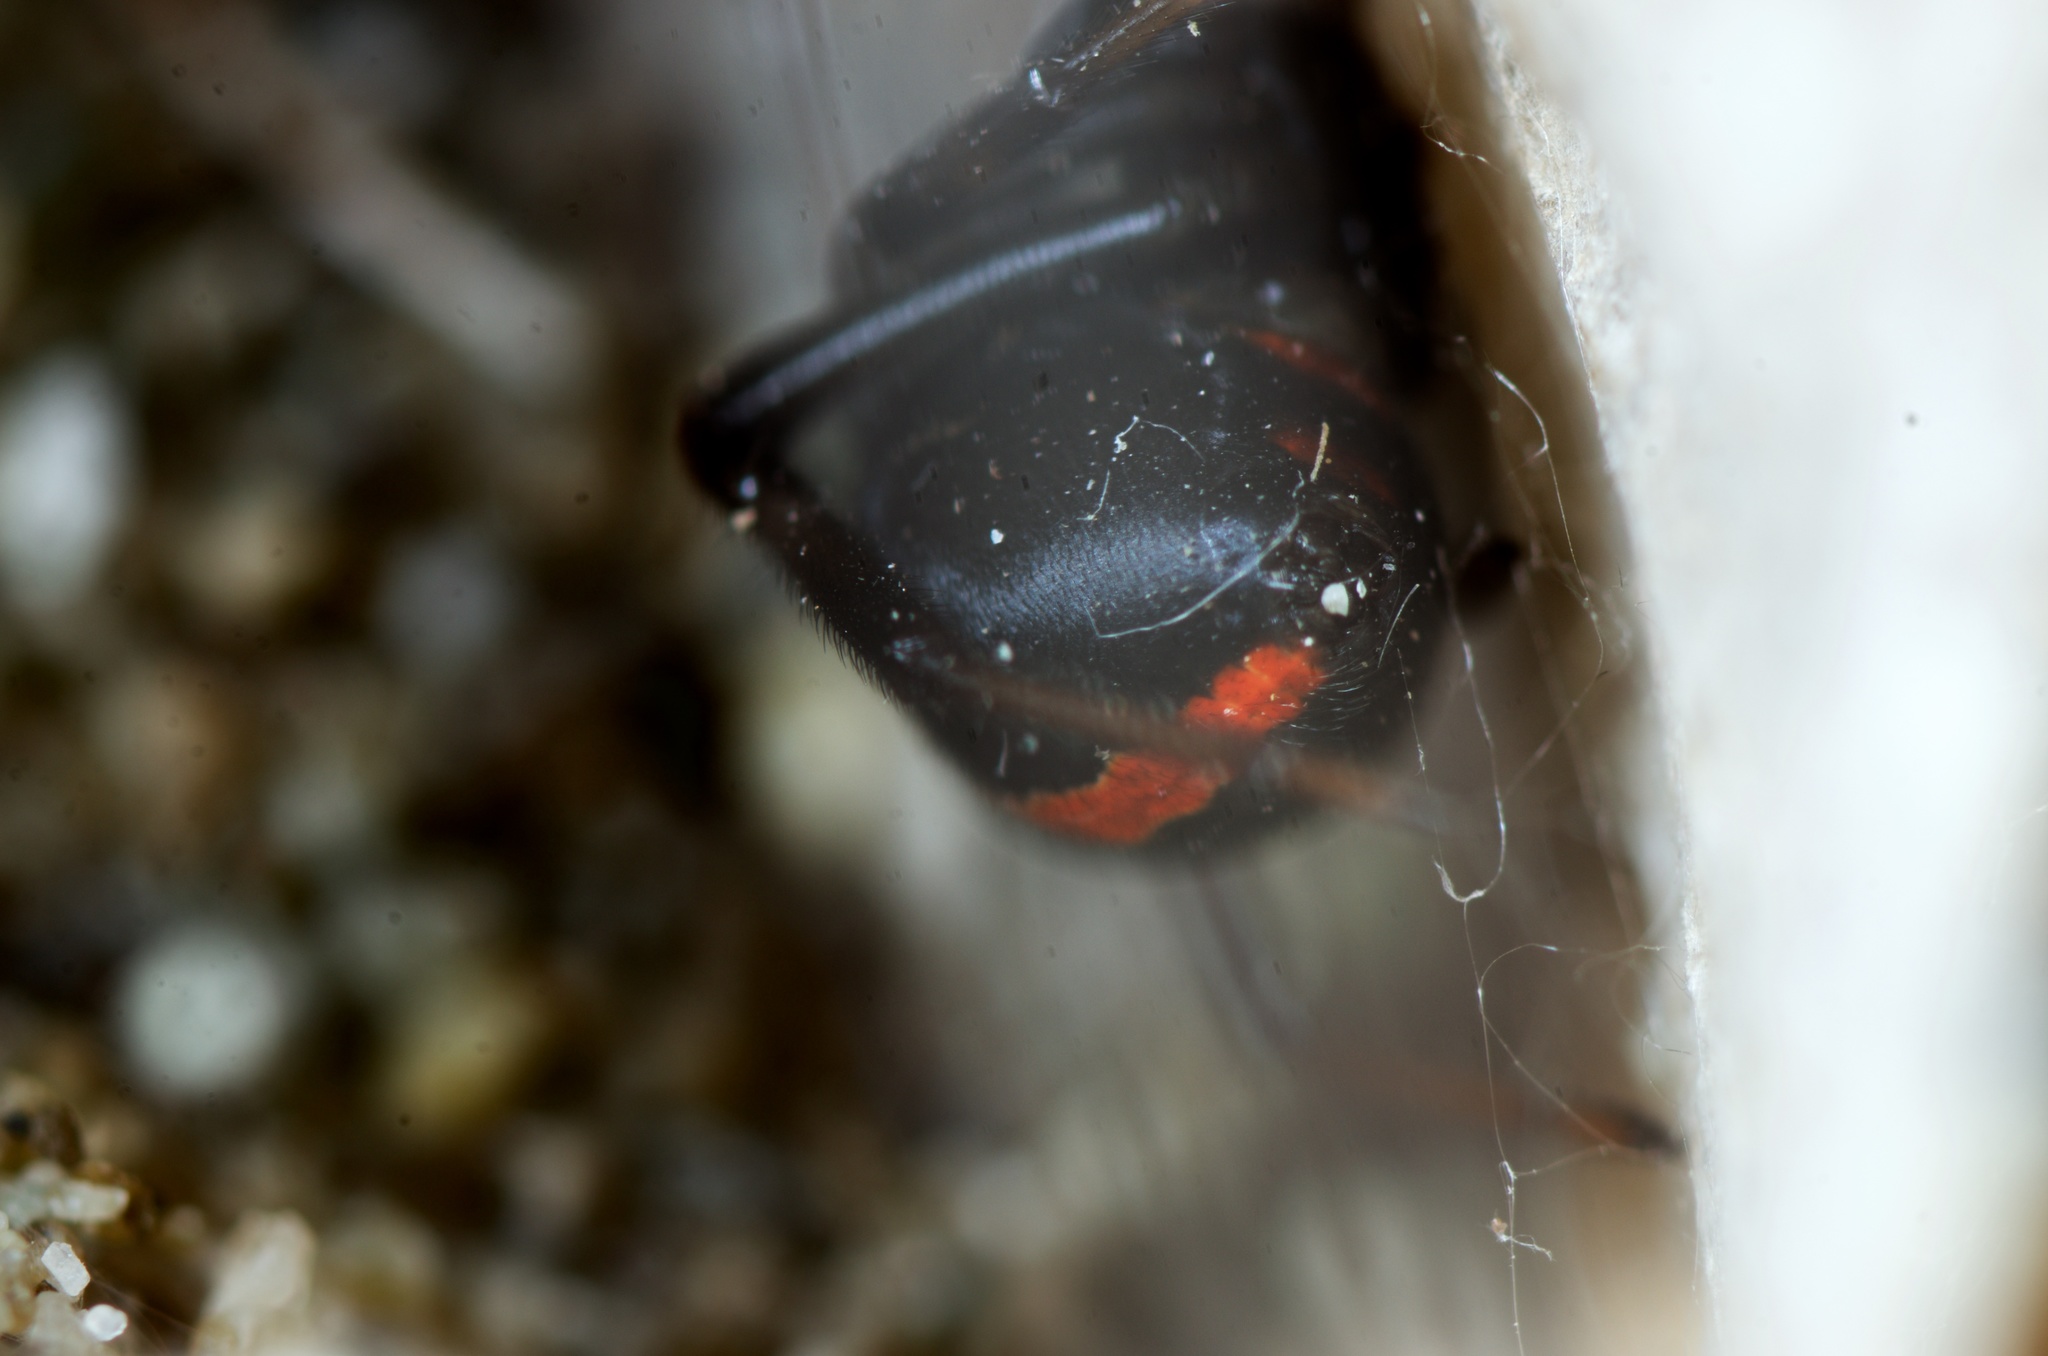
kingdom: Animalia
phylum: Arthropoda
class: Arachnida
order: Araneae
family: Theridiidae
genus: Latrodectus
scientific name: Latrodectus katipo
